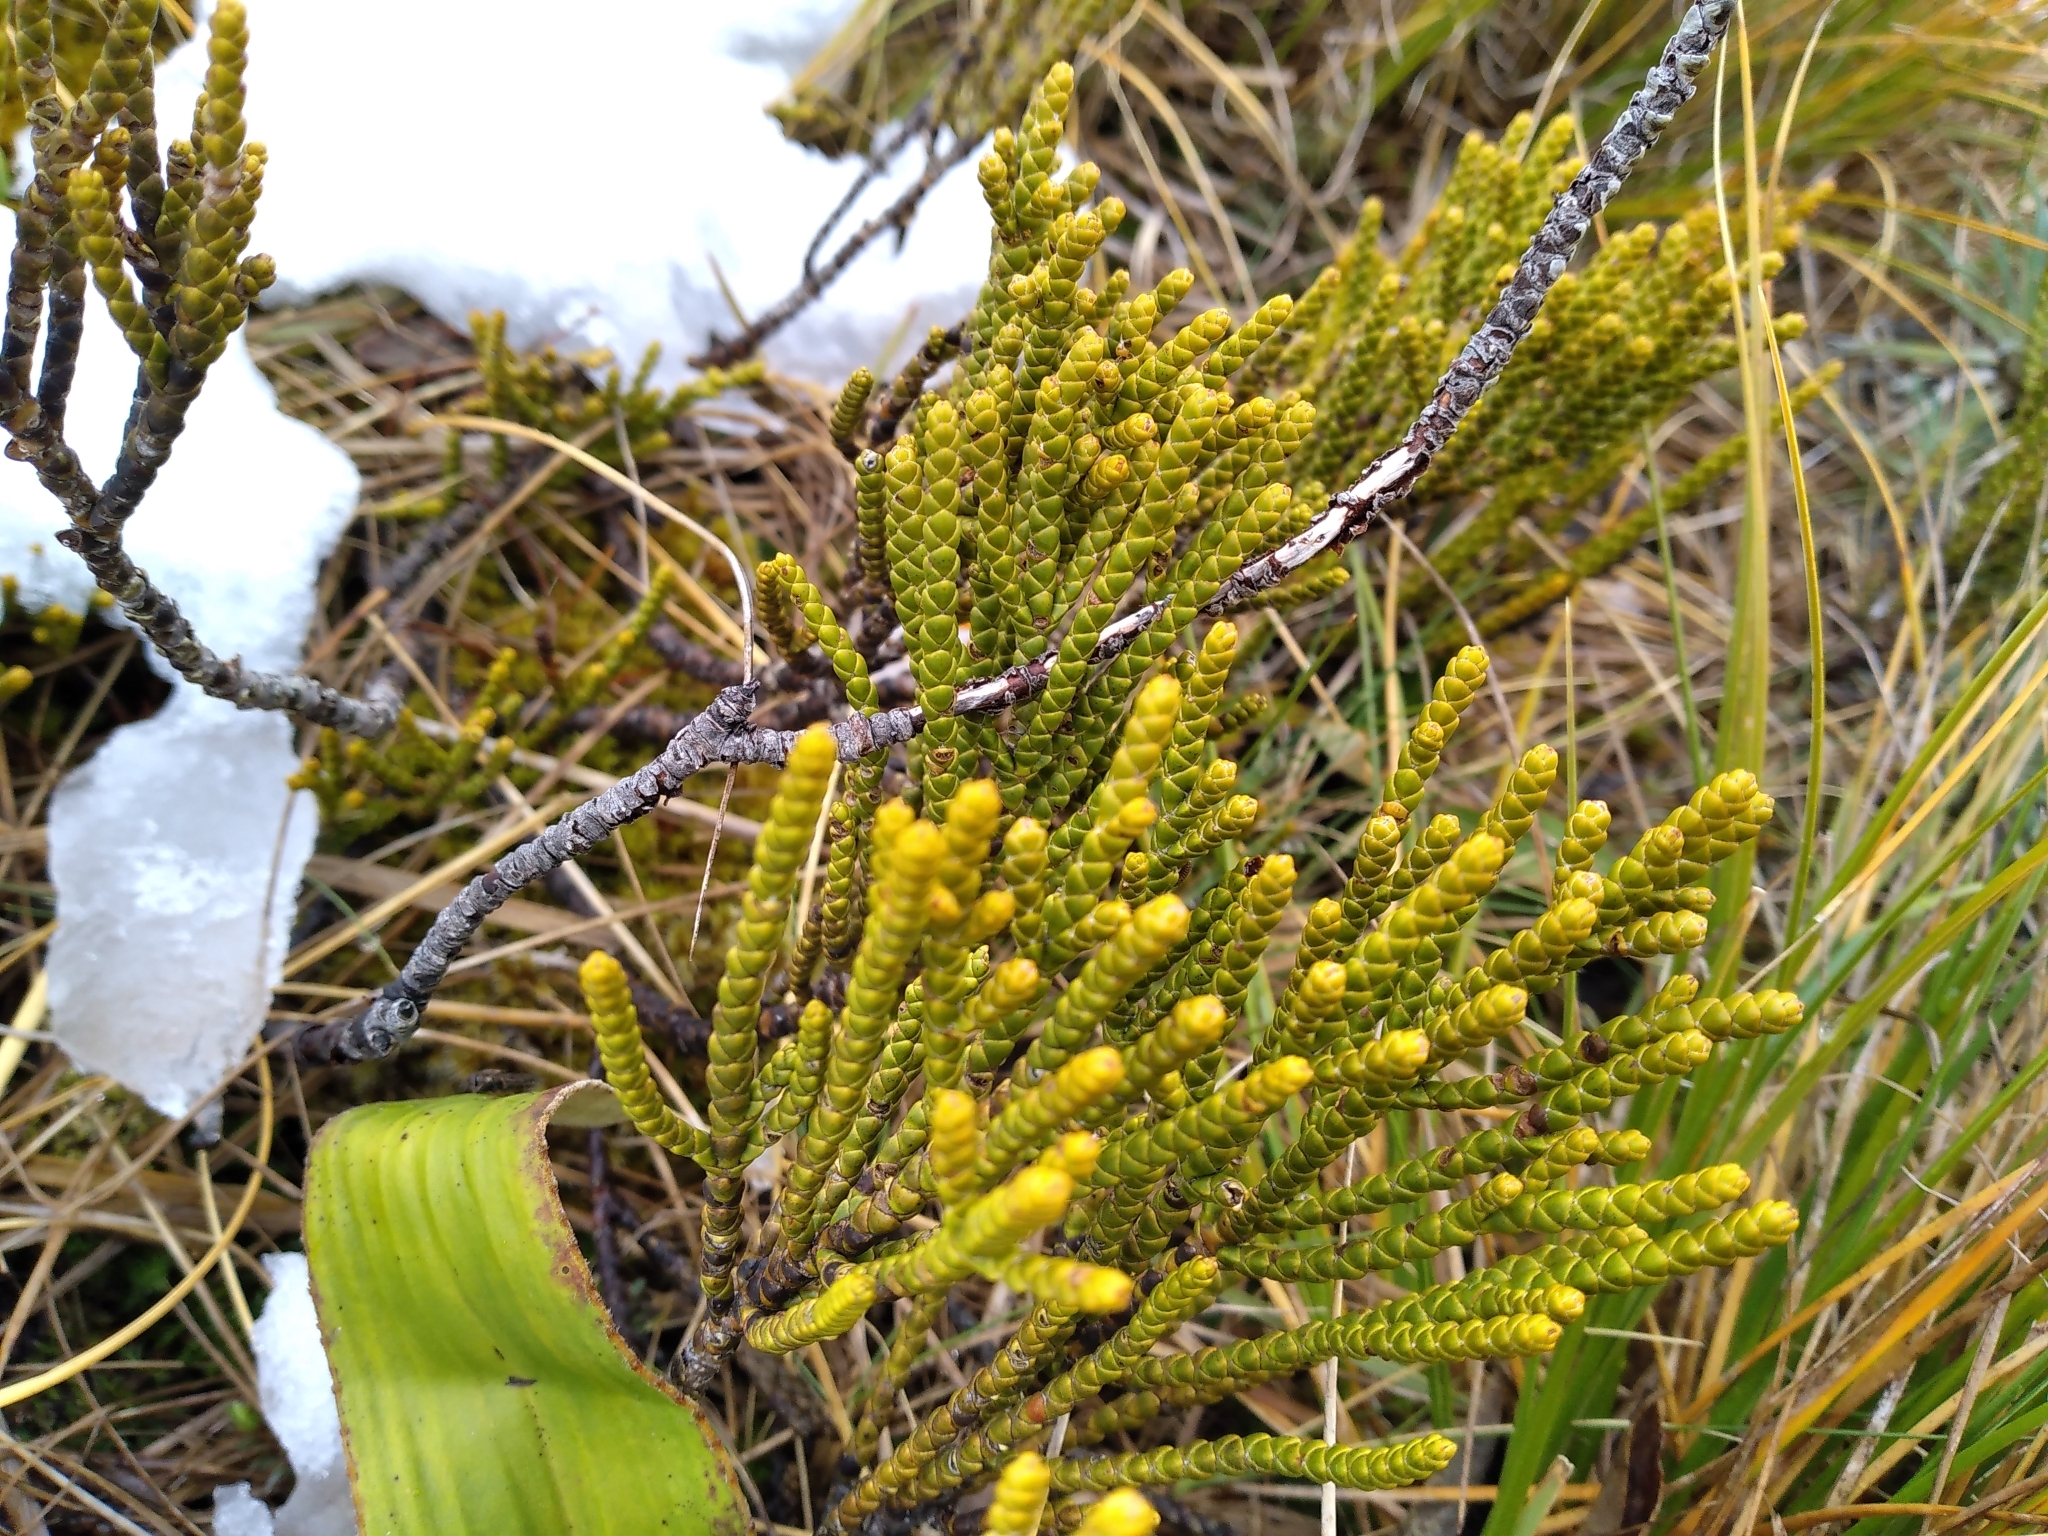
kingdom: Plantae
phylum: Tracheophyta
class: Magnoliopsida
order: Lamiales
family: Plantaginaceae
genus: Veronica
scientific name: Veronica hectorii
